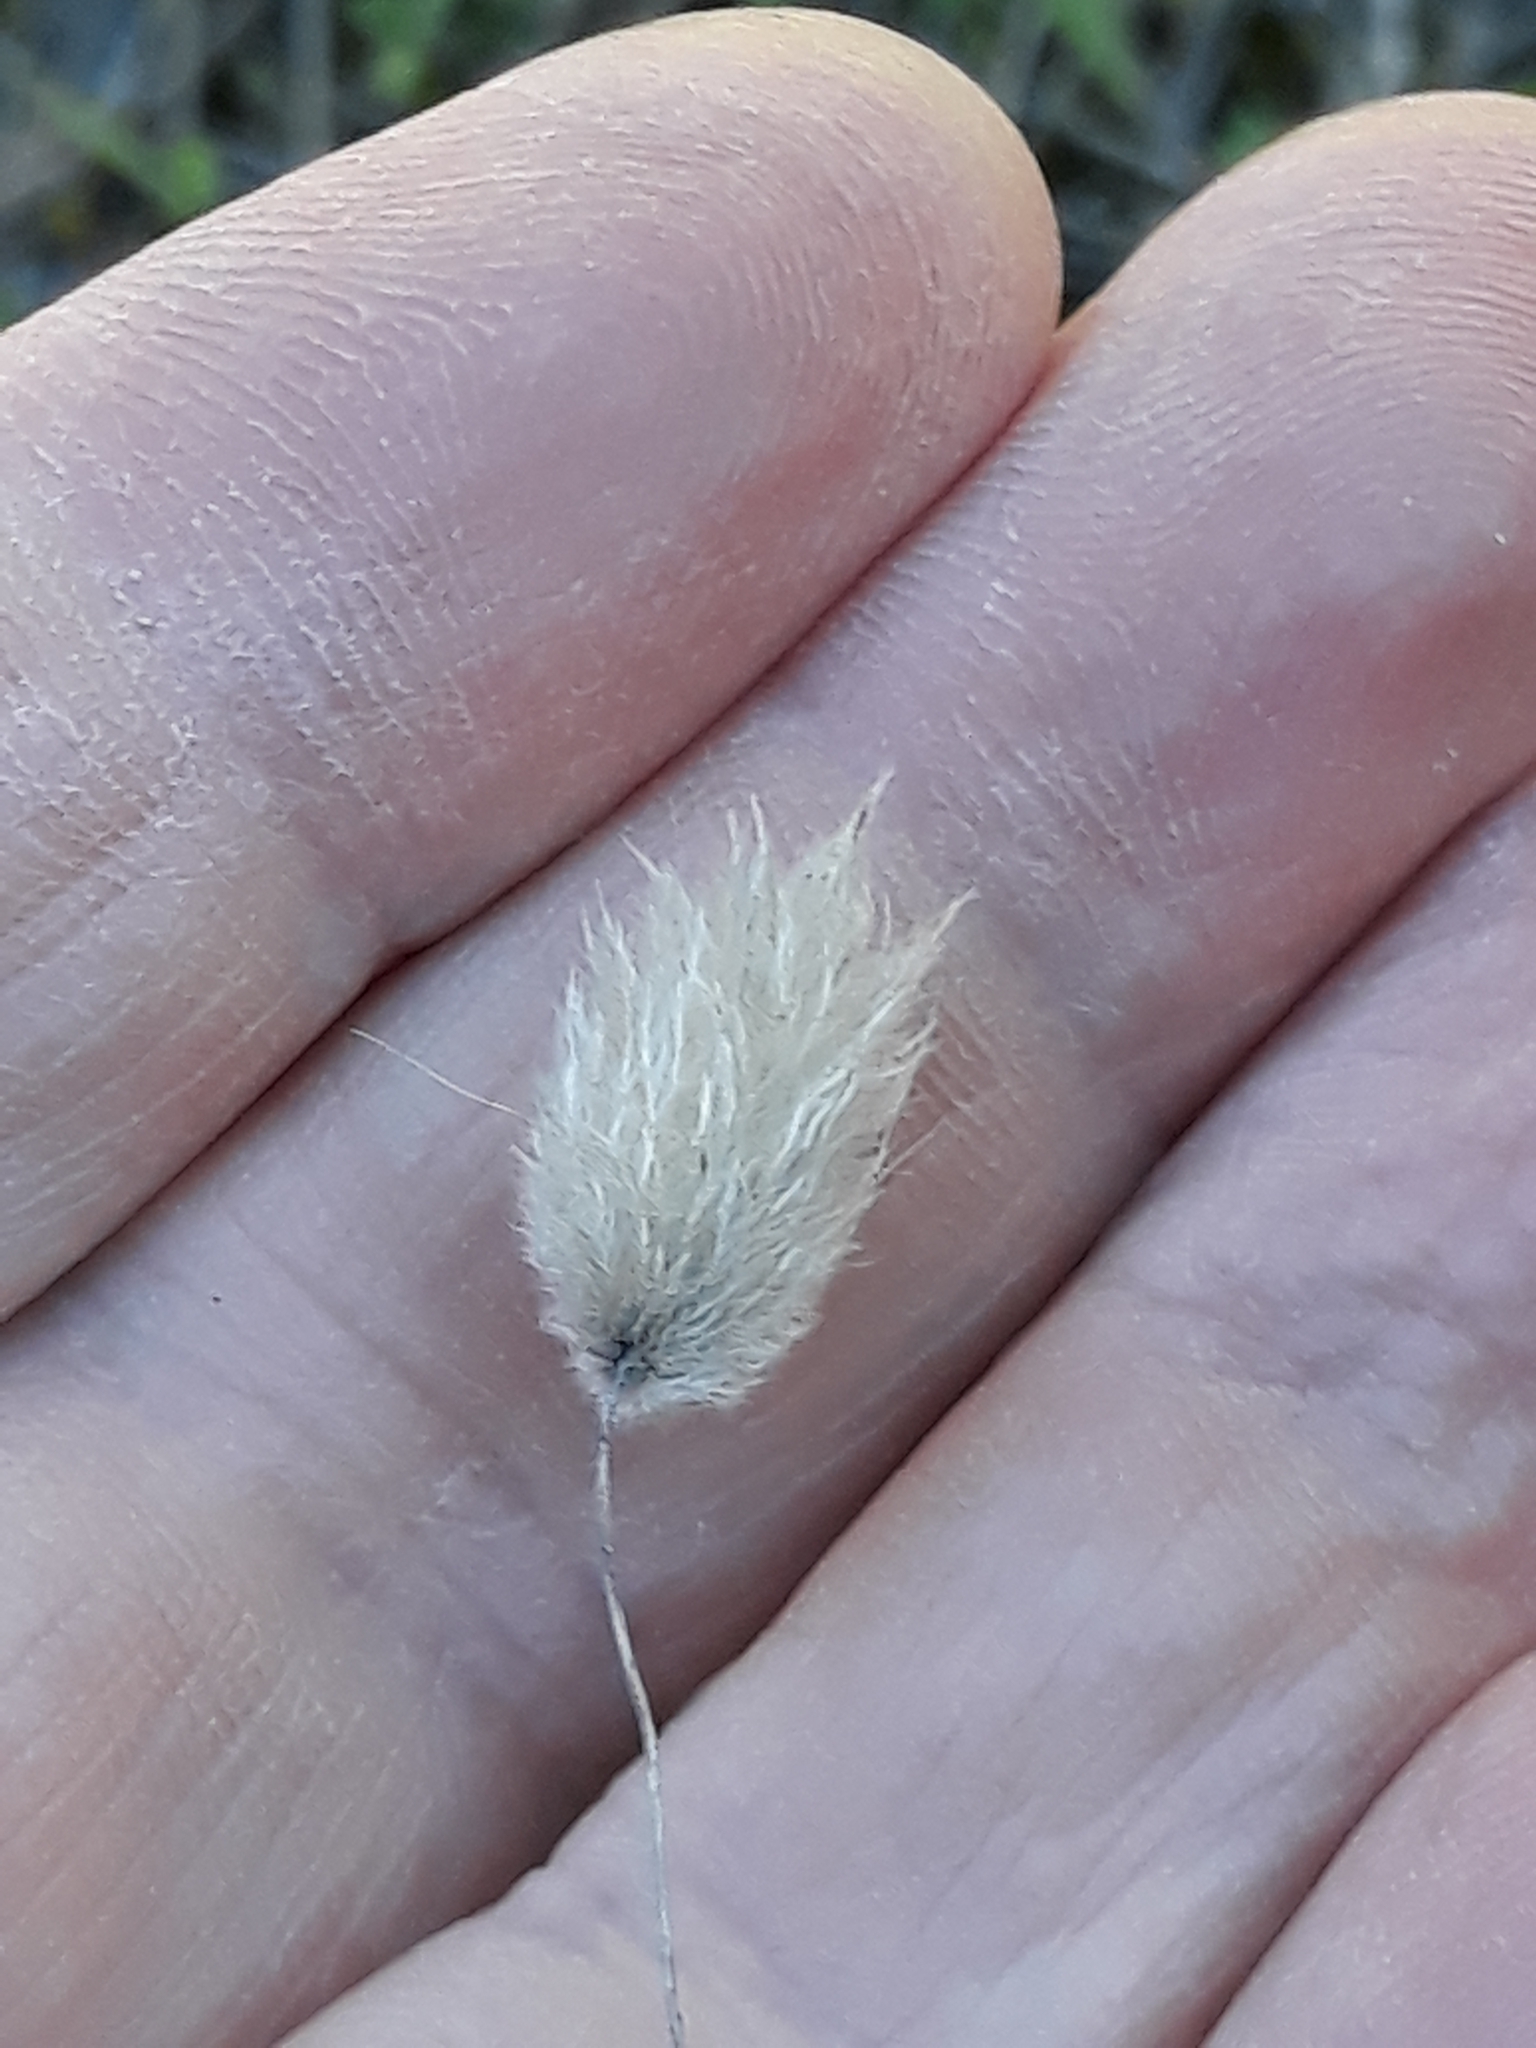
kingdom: Plantae
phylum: Tracheophyta
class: Liliopsida
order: Poales
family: Poaceae
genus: Lagurus
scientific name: Lagurus ovatus
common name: Hare's-tail
